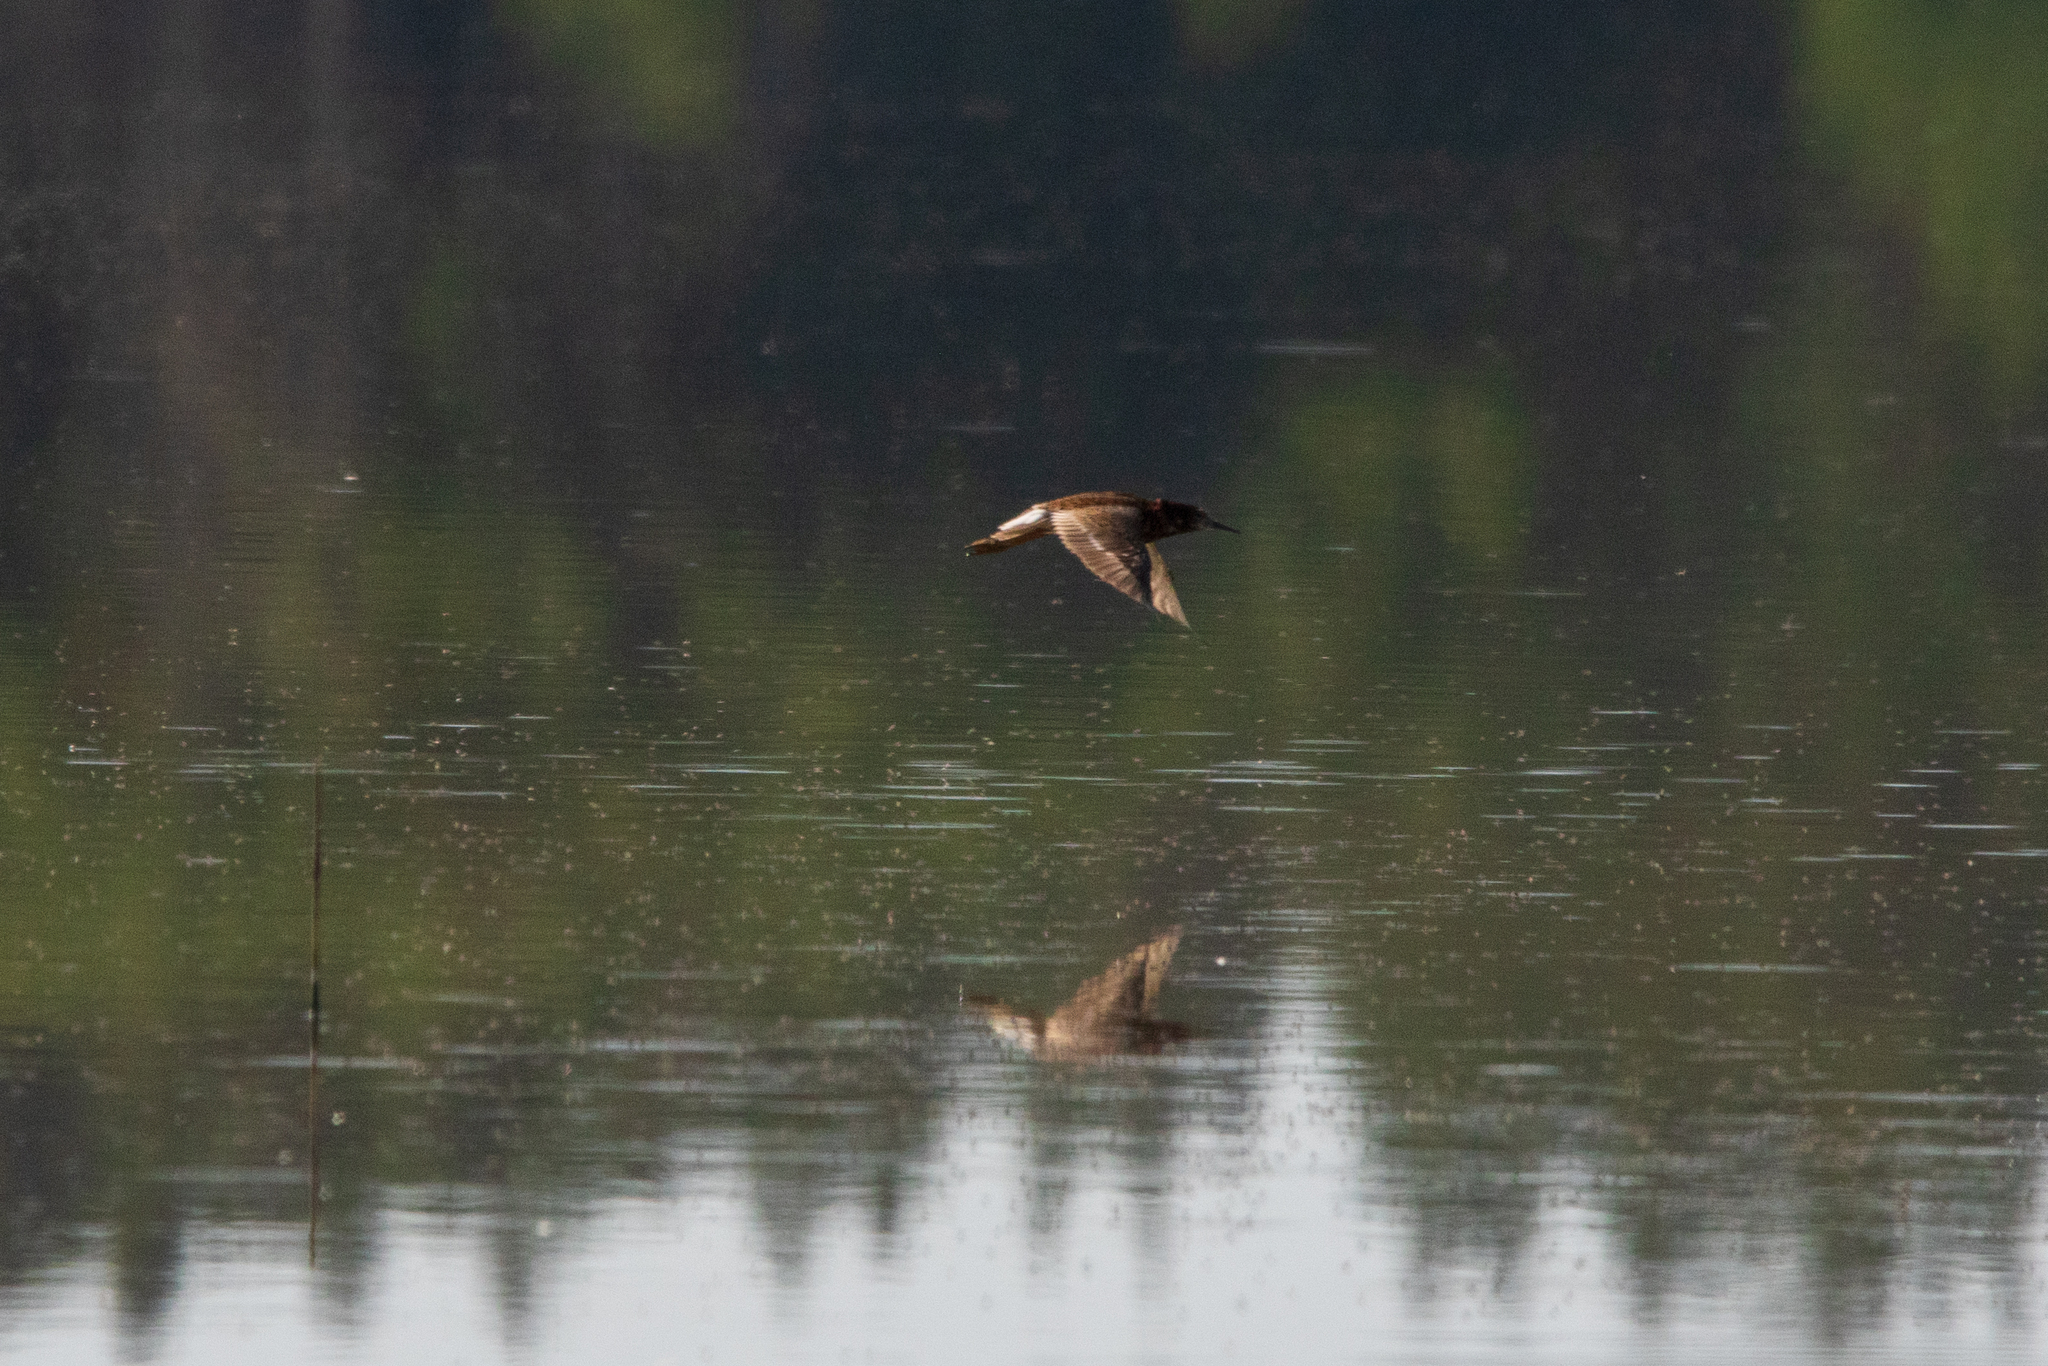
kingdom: Animalia
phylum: Chordata
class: Aves
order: Charadriiformes
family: Scolopacidae
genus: Calidris
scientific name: Calidris pugnax
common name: Ruff
